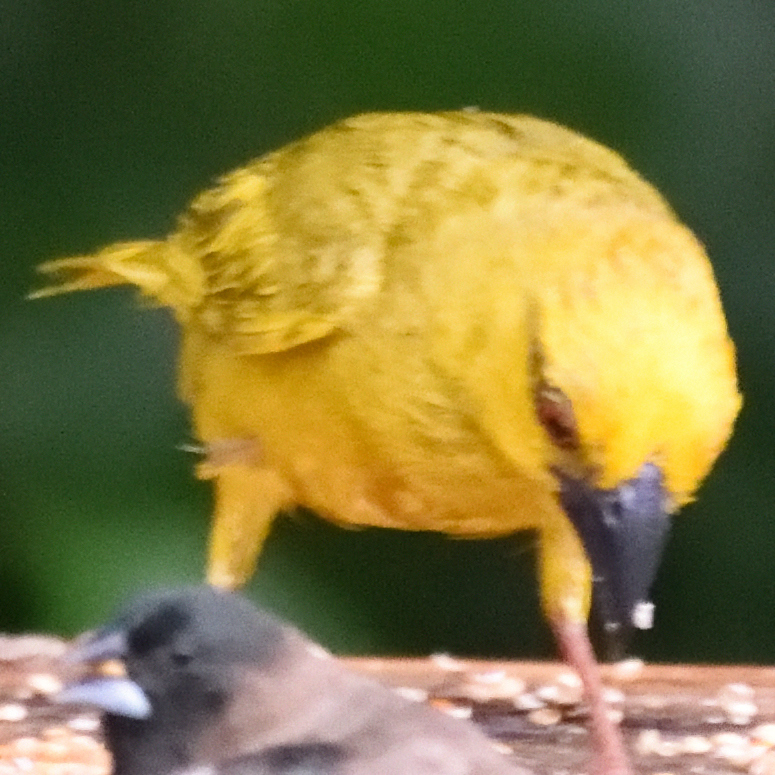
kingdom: Animalia
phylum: Chordata
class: Aves
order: Passeriformes
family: Ploceidae
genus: Ploceus
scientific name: Ploceus subaureus
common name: Yellow weaver
